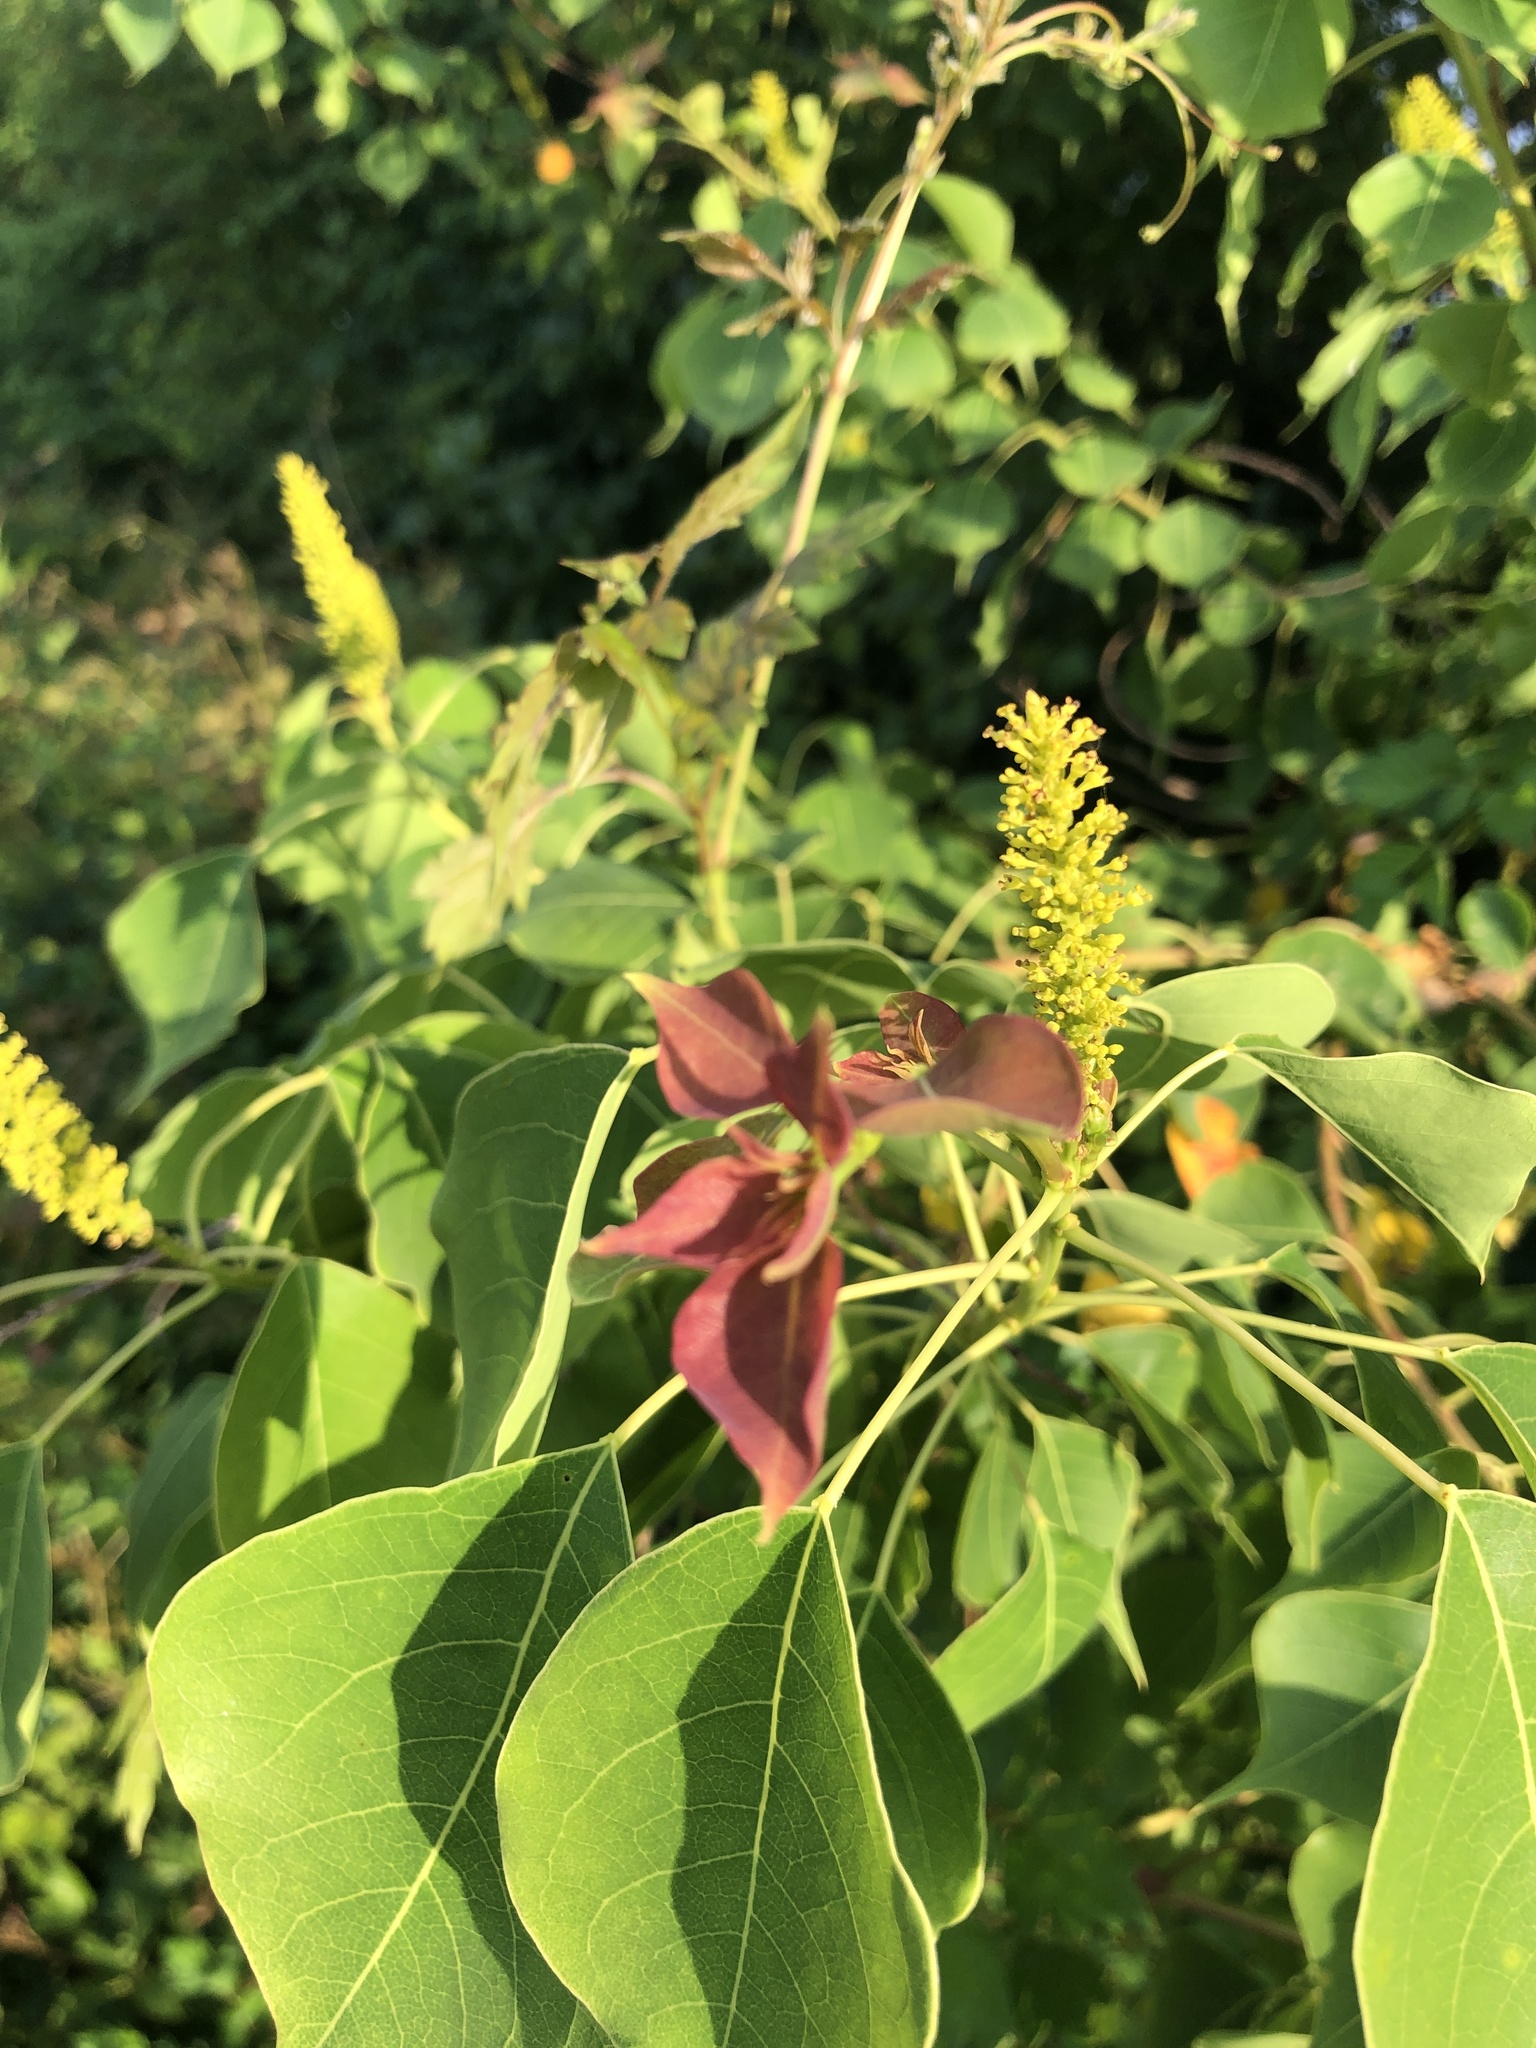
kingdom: Plantae
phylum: Tracheophyta
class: Magnoliopsida
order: Malpighiales
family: Euphorbiaceae
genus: Triadica
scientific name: Triadica sebifera
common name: Chinese tallow
